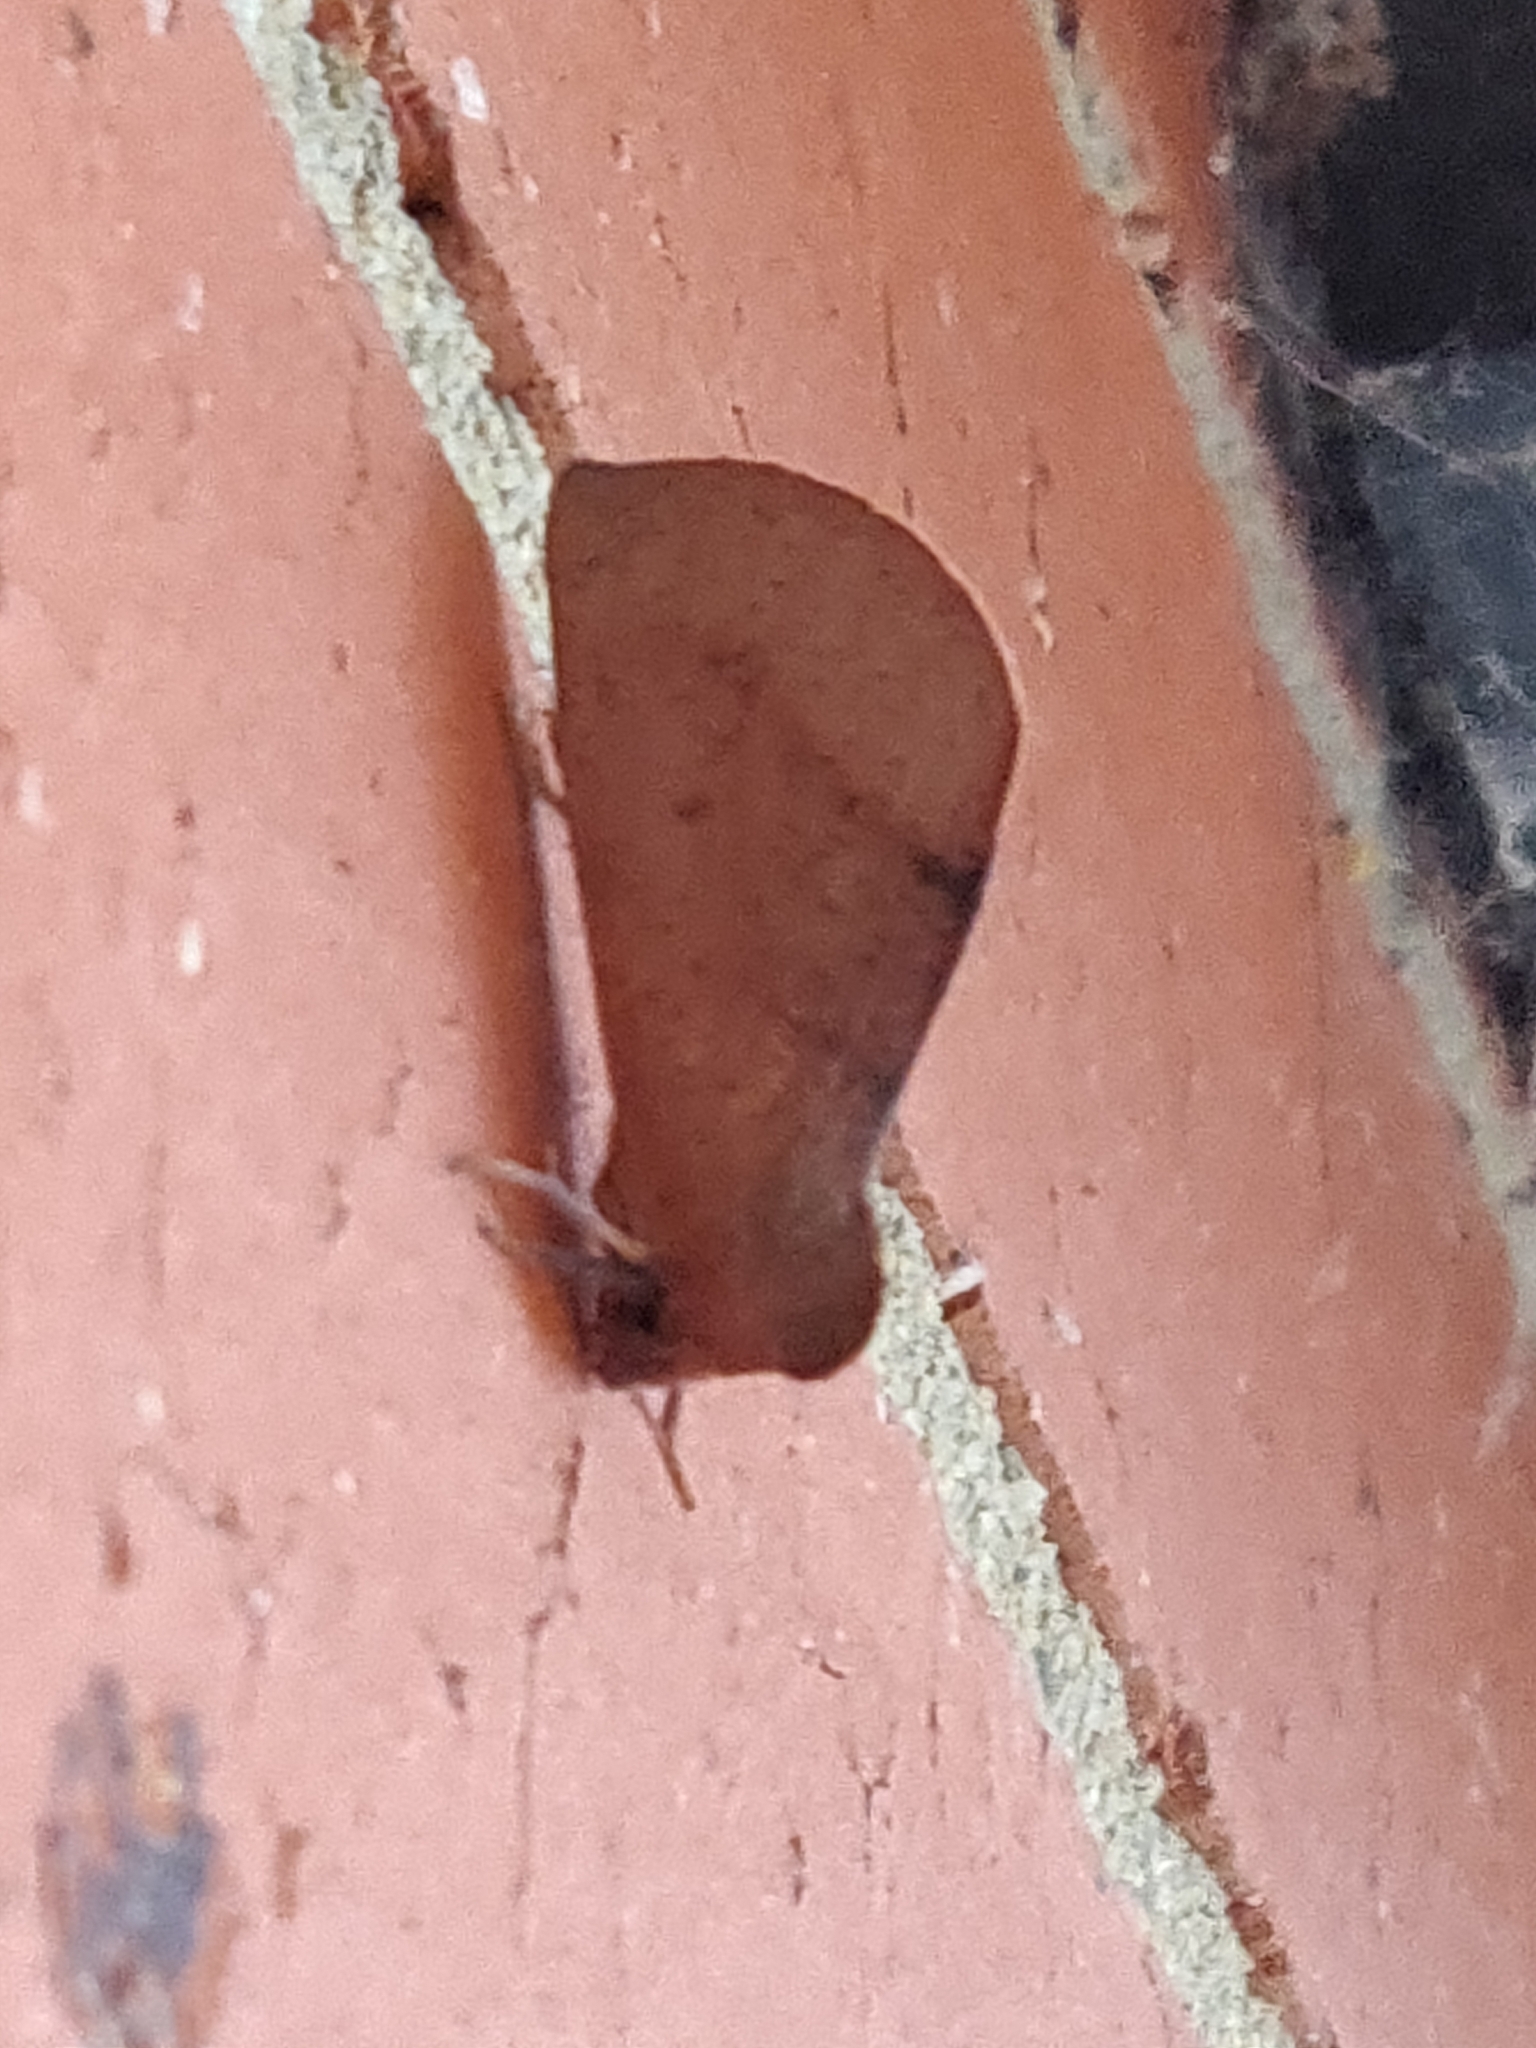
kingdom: Animalia
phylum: Arthropoda
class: Insecta
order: Lepidoptera
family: Geometridae
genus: Fisera
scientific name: Fisera hypoleuca
